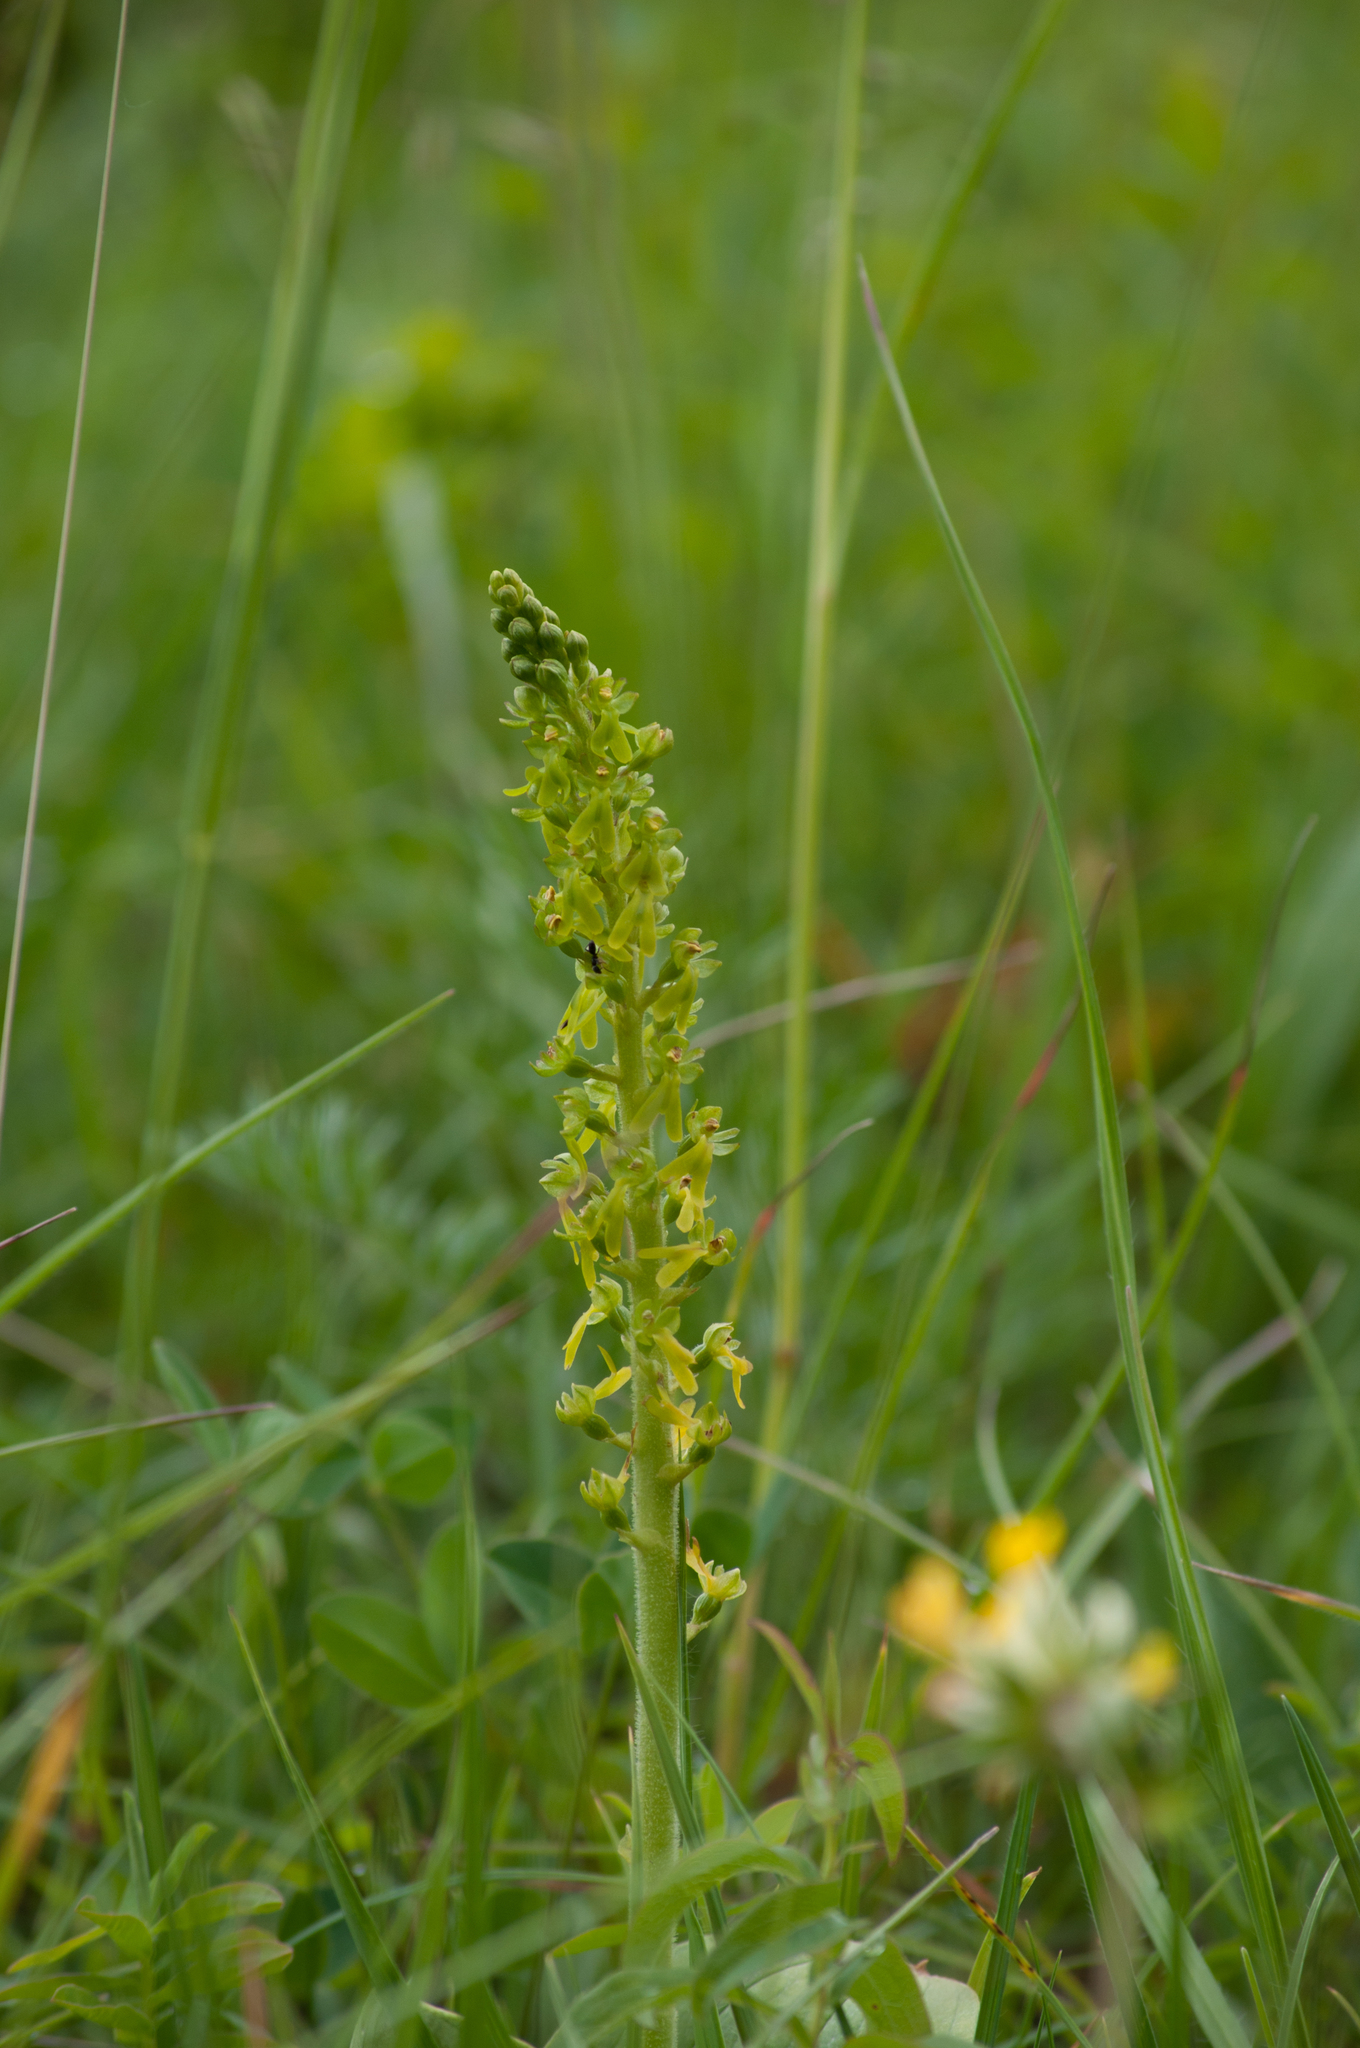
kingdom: Plantae
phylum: Tracheophyta
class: Liliopsida
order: Asparagales
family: Orchidaceae
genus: Neottia
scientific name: Neottia ovata
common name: Common twayblade
